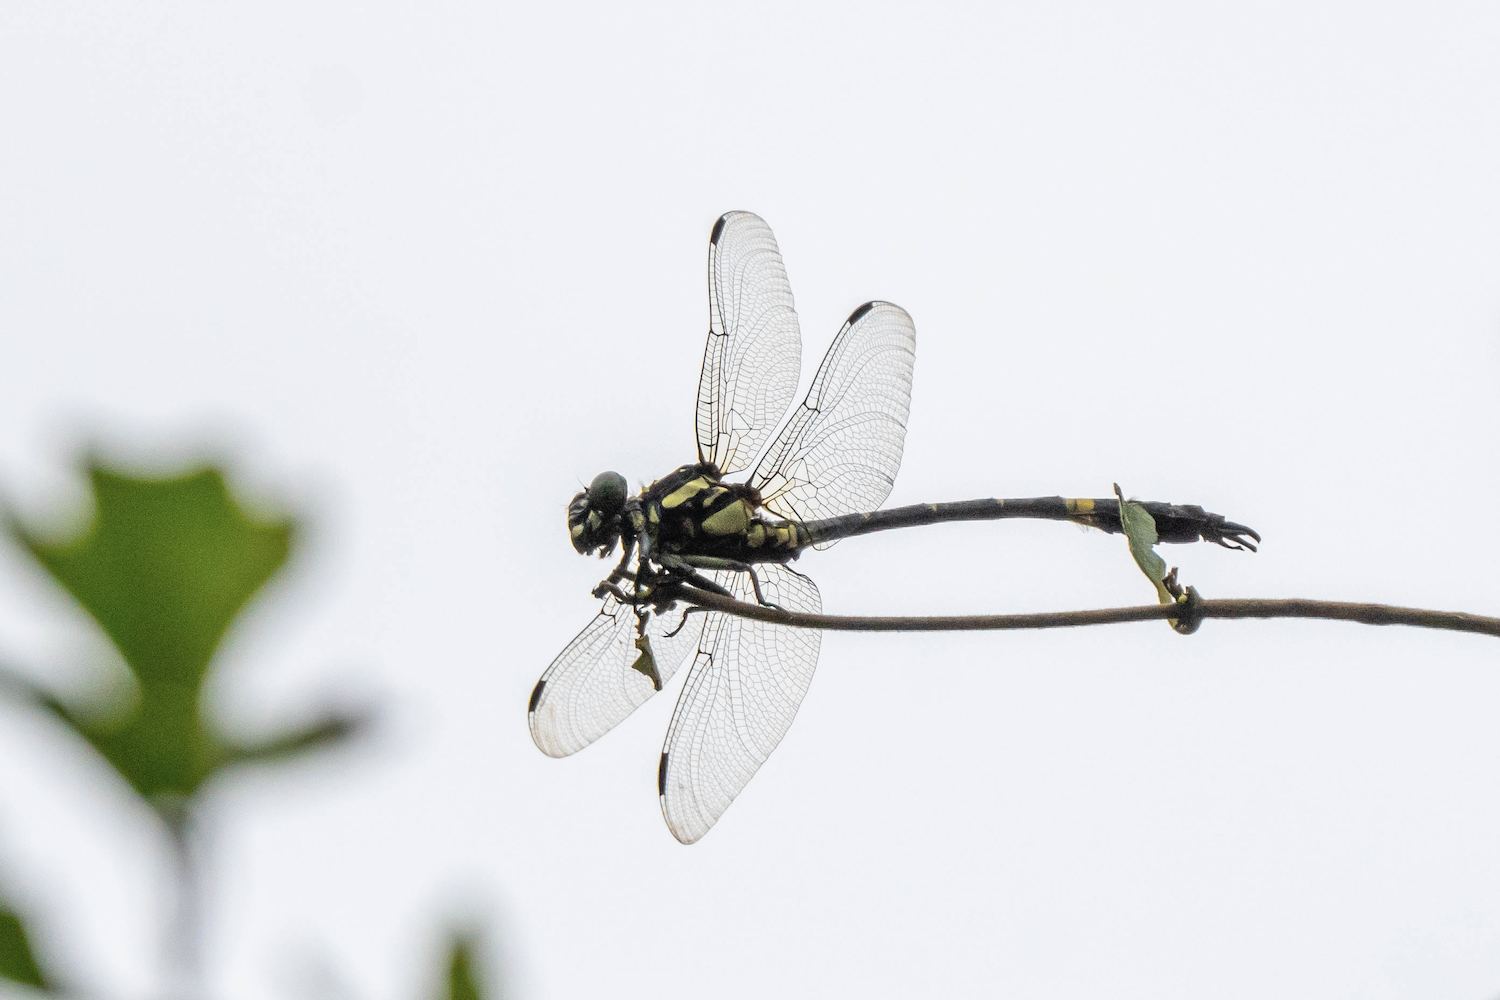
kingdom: Animalia
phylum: Arthropoda
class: Insecta
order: Odonata
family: Gomphidae
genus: Megalogomphus
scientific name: Megalogomphus sommeri
